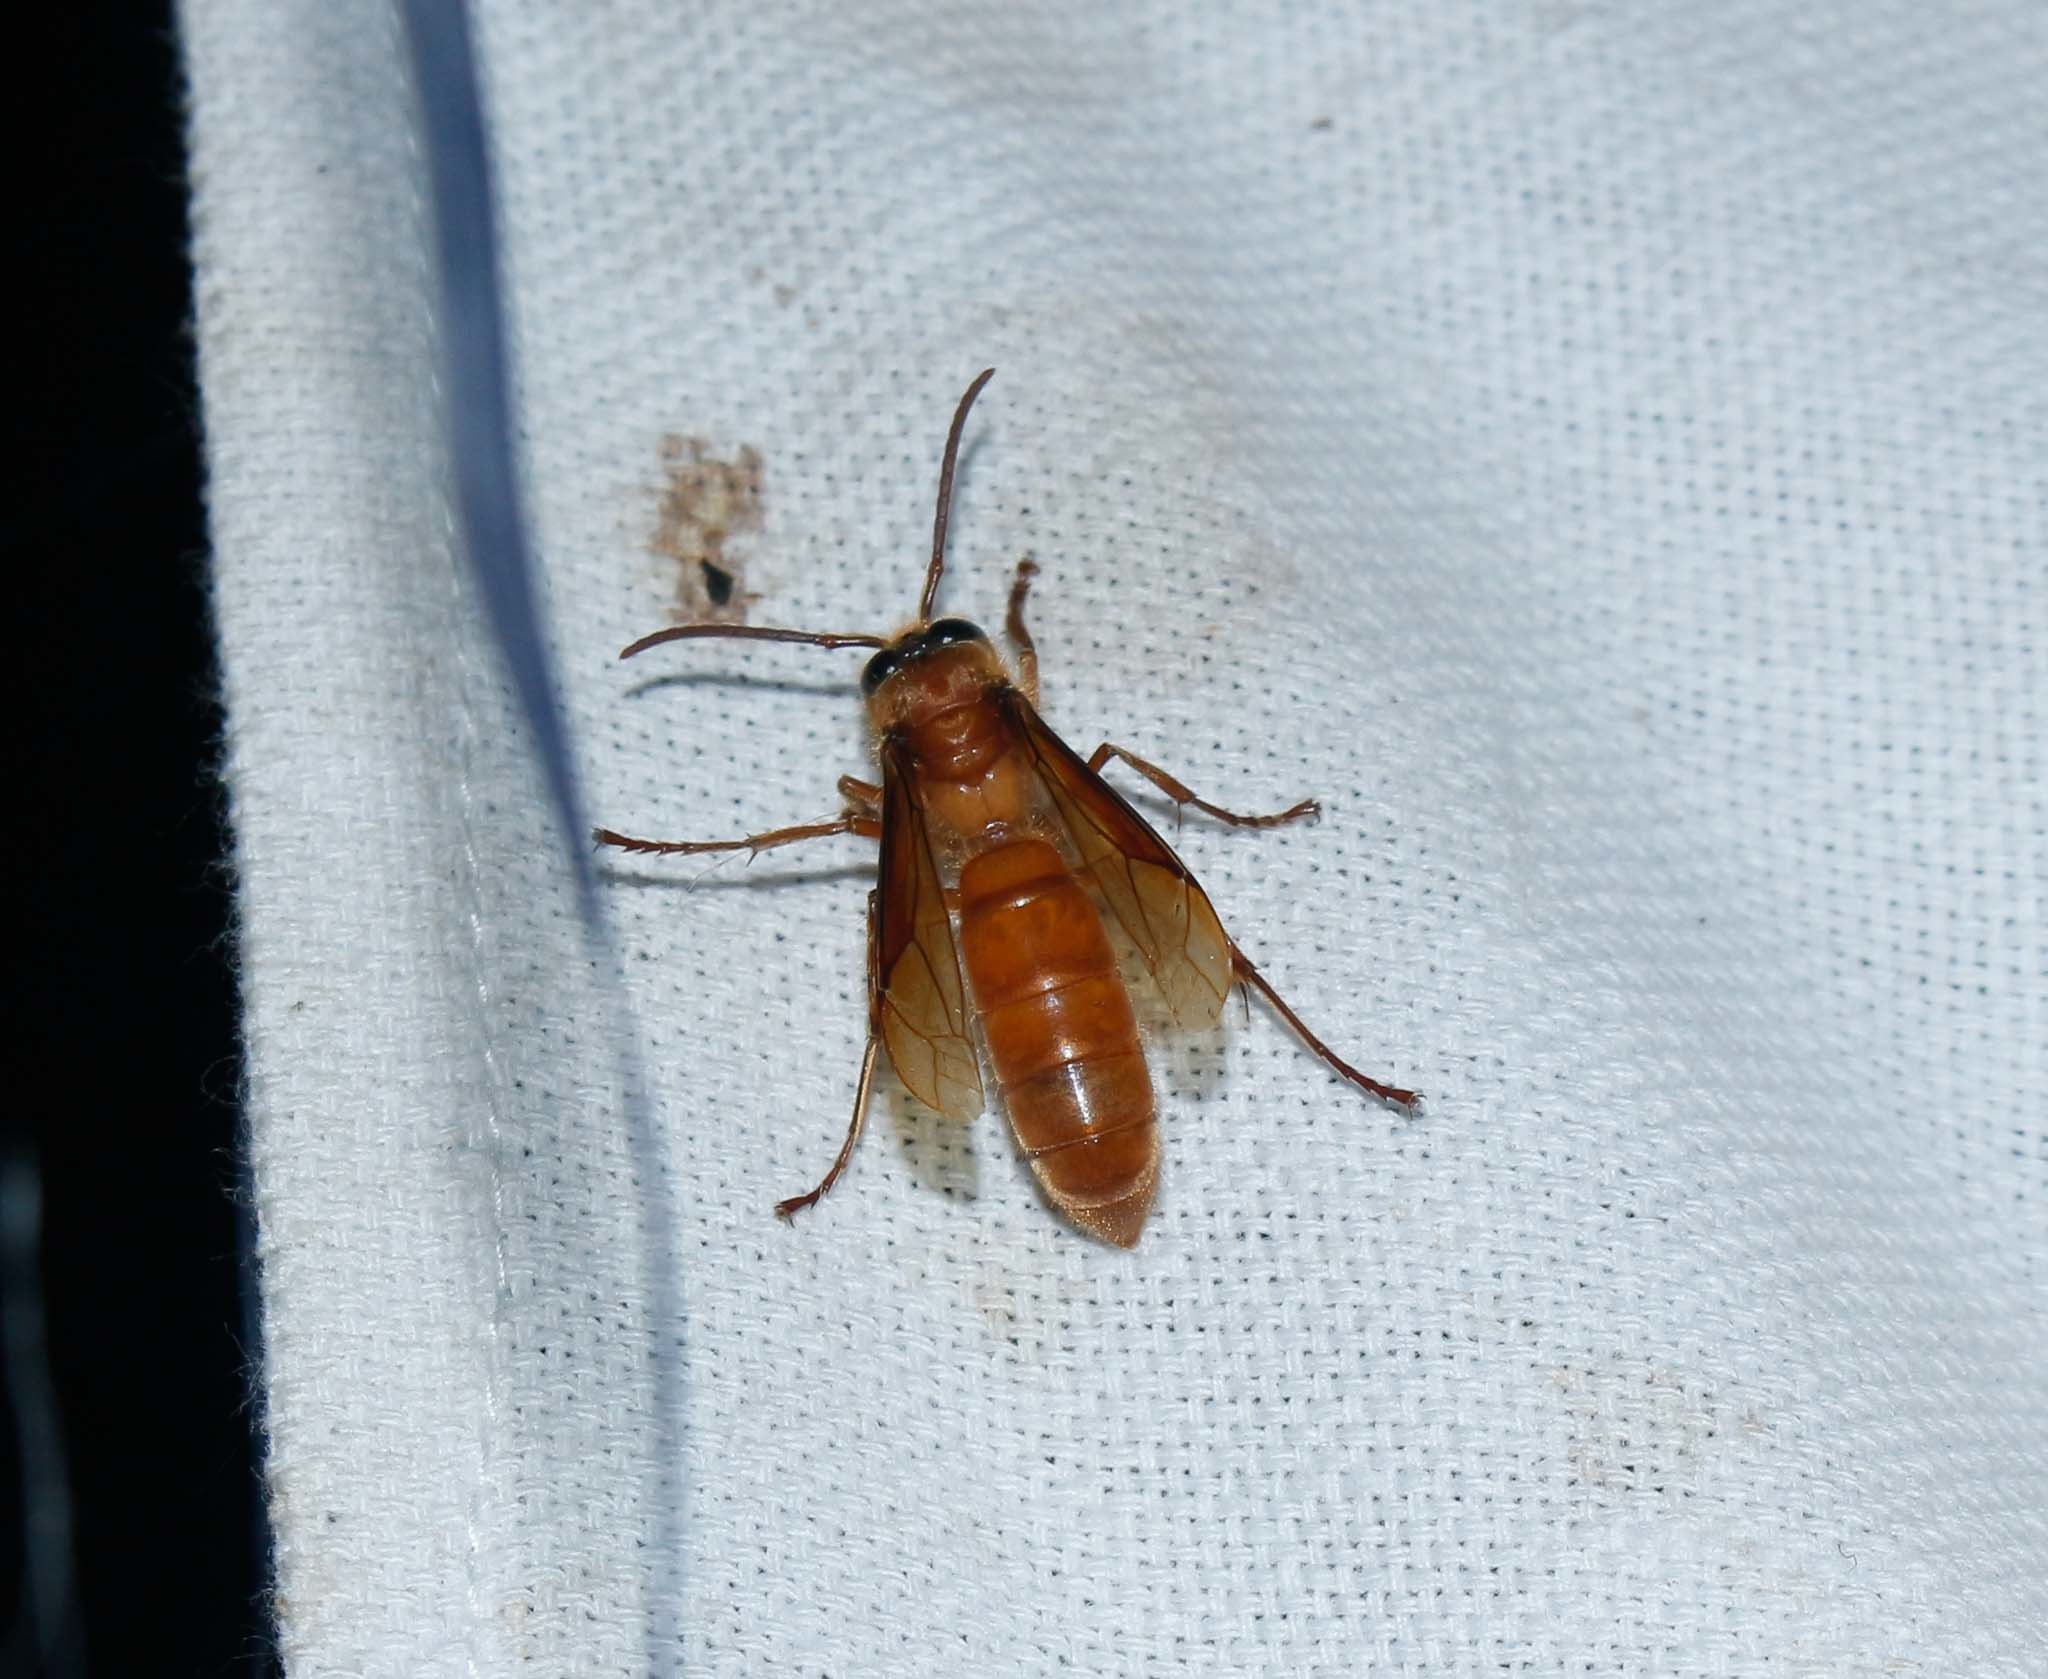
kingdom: Animalia
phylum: Arthropoda
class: Insecta
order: Hymenoptera
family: Vespidae
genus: Provespa
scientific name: Provespa barthelemyi
